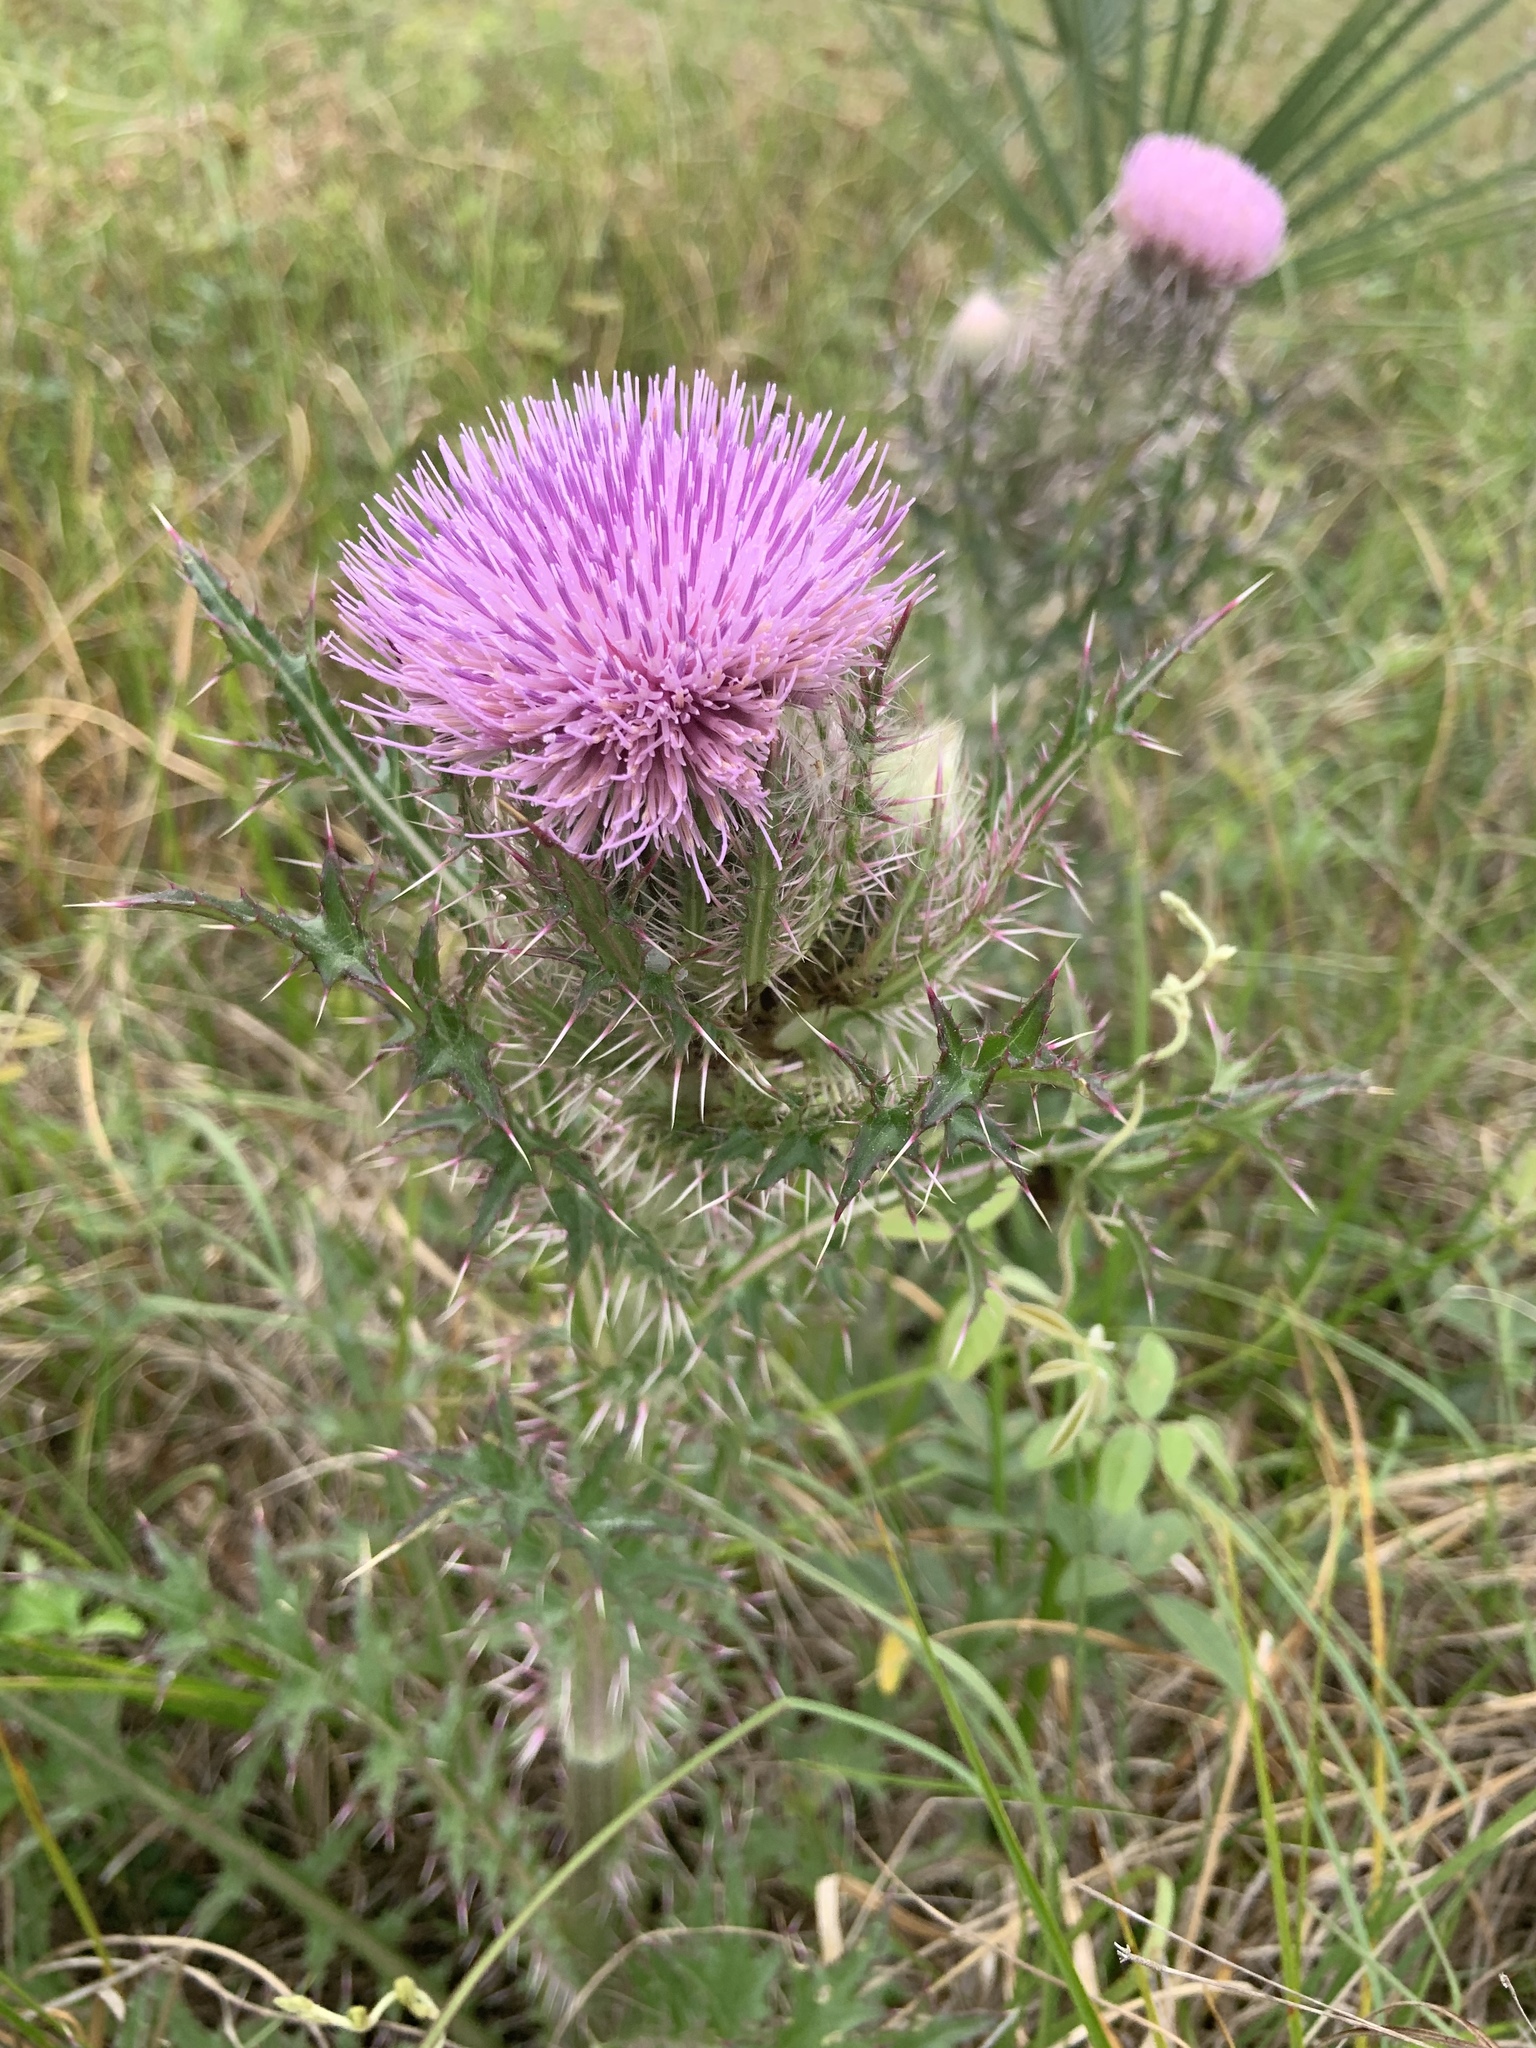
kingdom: Plantae
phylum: Tracheophyta
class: Magnoliopsida
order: Asterales
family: Asteraceae
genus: Cirsium
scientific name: Cirsium horridulum
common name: Bristly thistle
